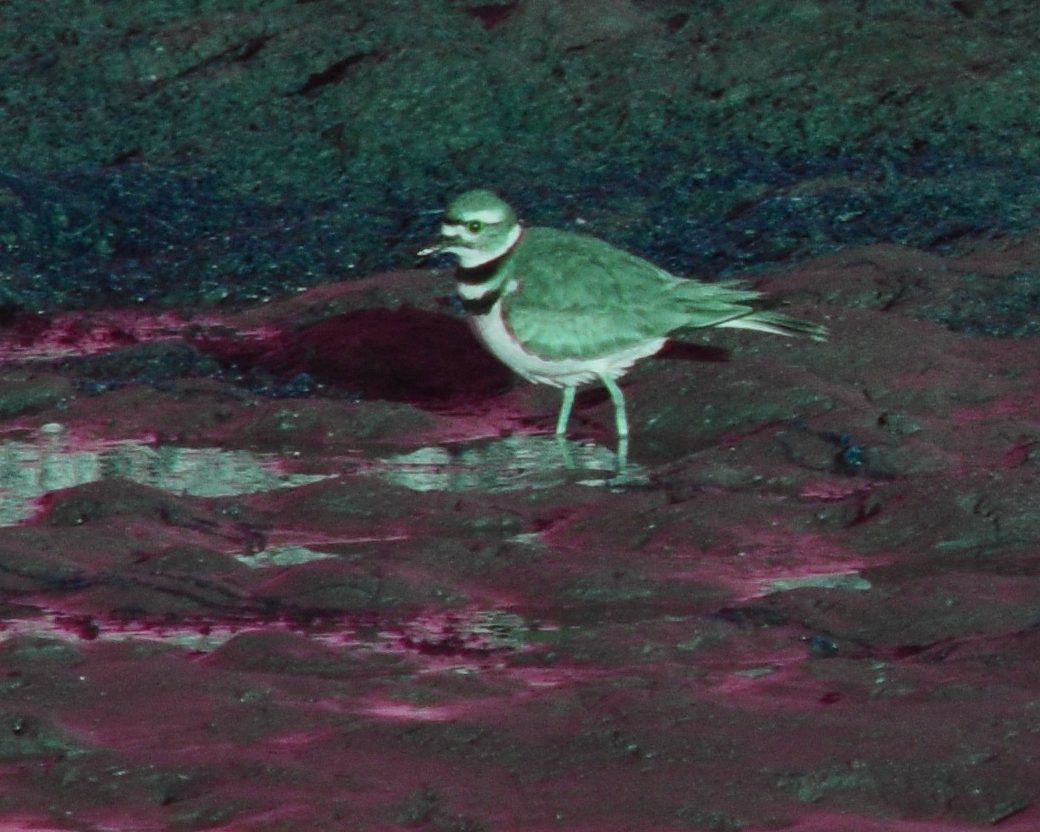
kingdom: Animalia
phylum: Chordata
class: Aves
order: Charadriiformes
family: Charadriidae
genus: Charadrius
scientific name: Charadrius vociferus
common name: Killdeer
